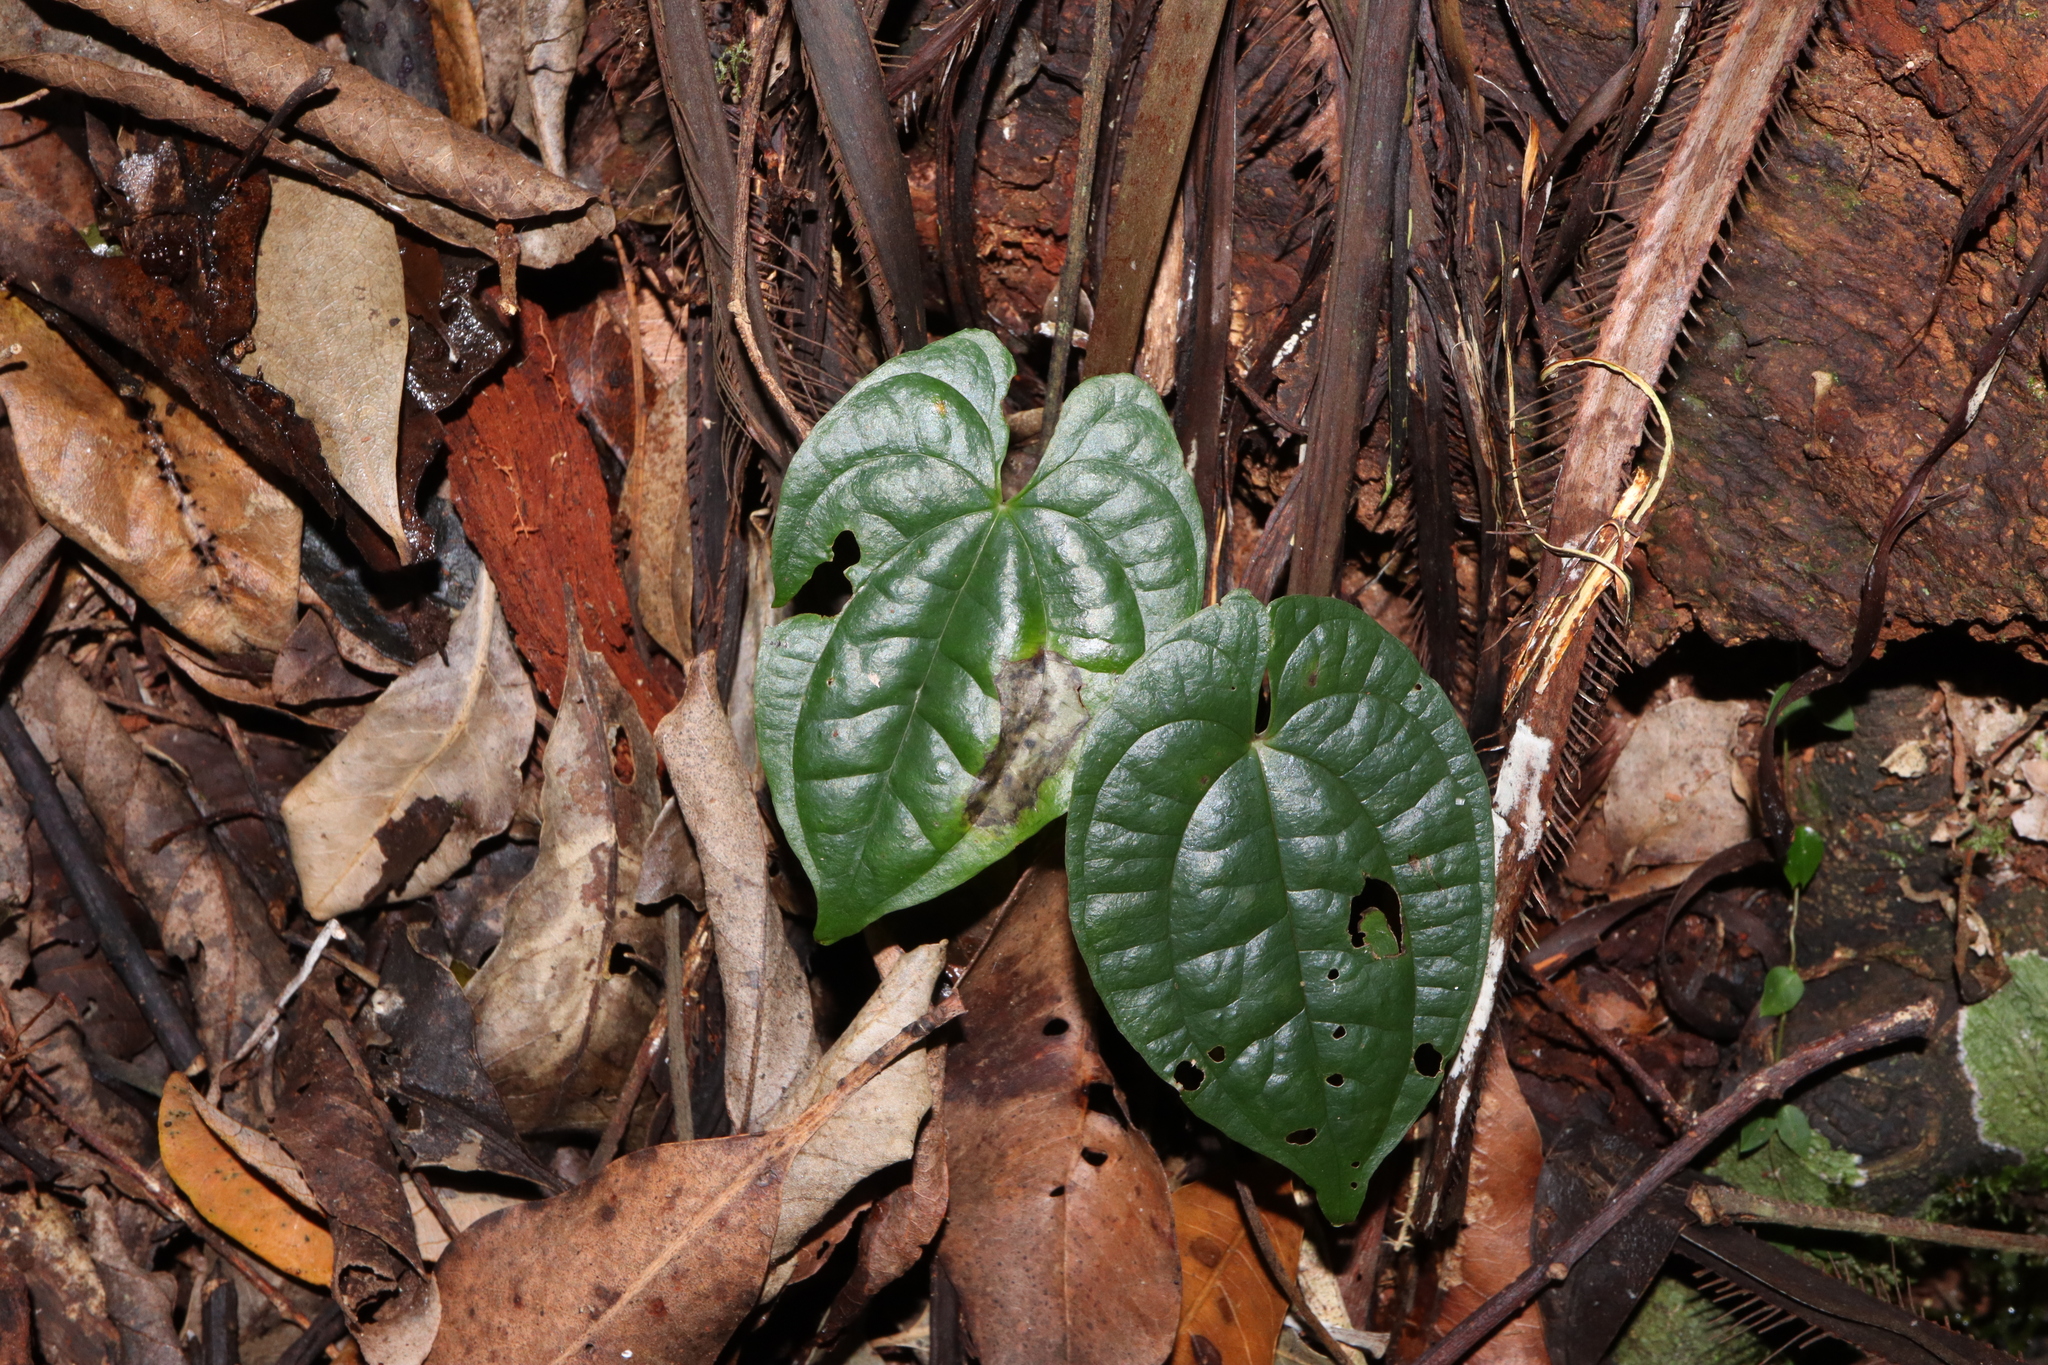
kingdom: Plantae
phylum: Tracheophyta
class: Liliopsida
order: Dioscoreales
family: Dioscoreaceae
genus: Dioscorea
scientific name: Dioscorea transversa
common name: Long yam
